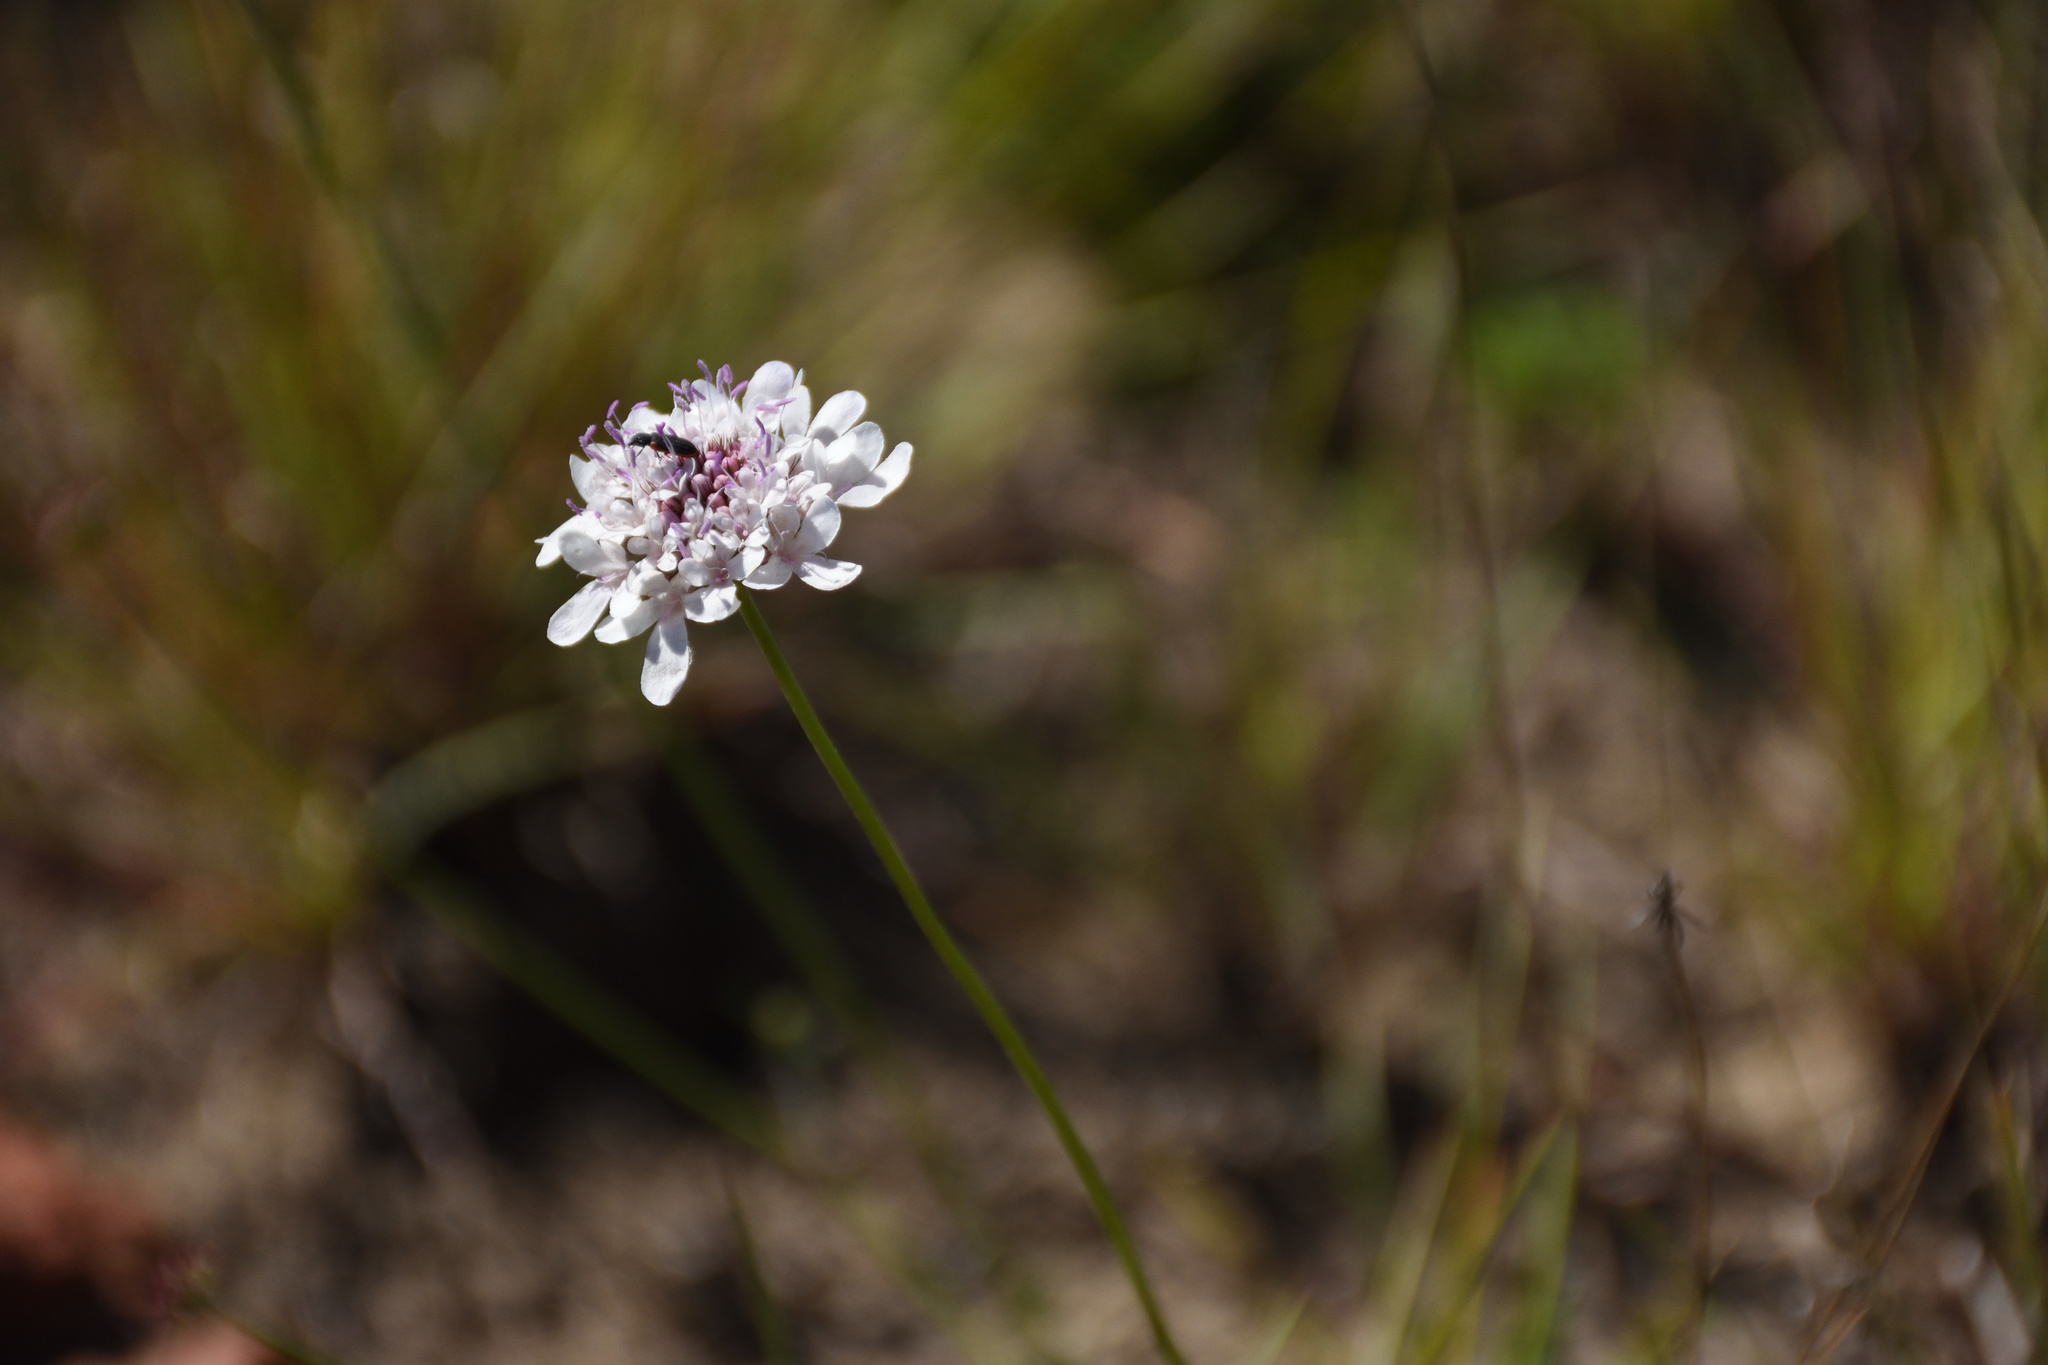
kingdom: Plantae
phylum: Tracheophyta
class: Magnoliopsida
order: Dipsacales
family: Caprifoliaceae
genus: Scabiosa
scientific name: Scabiosa columbaria
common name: Small scabious
